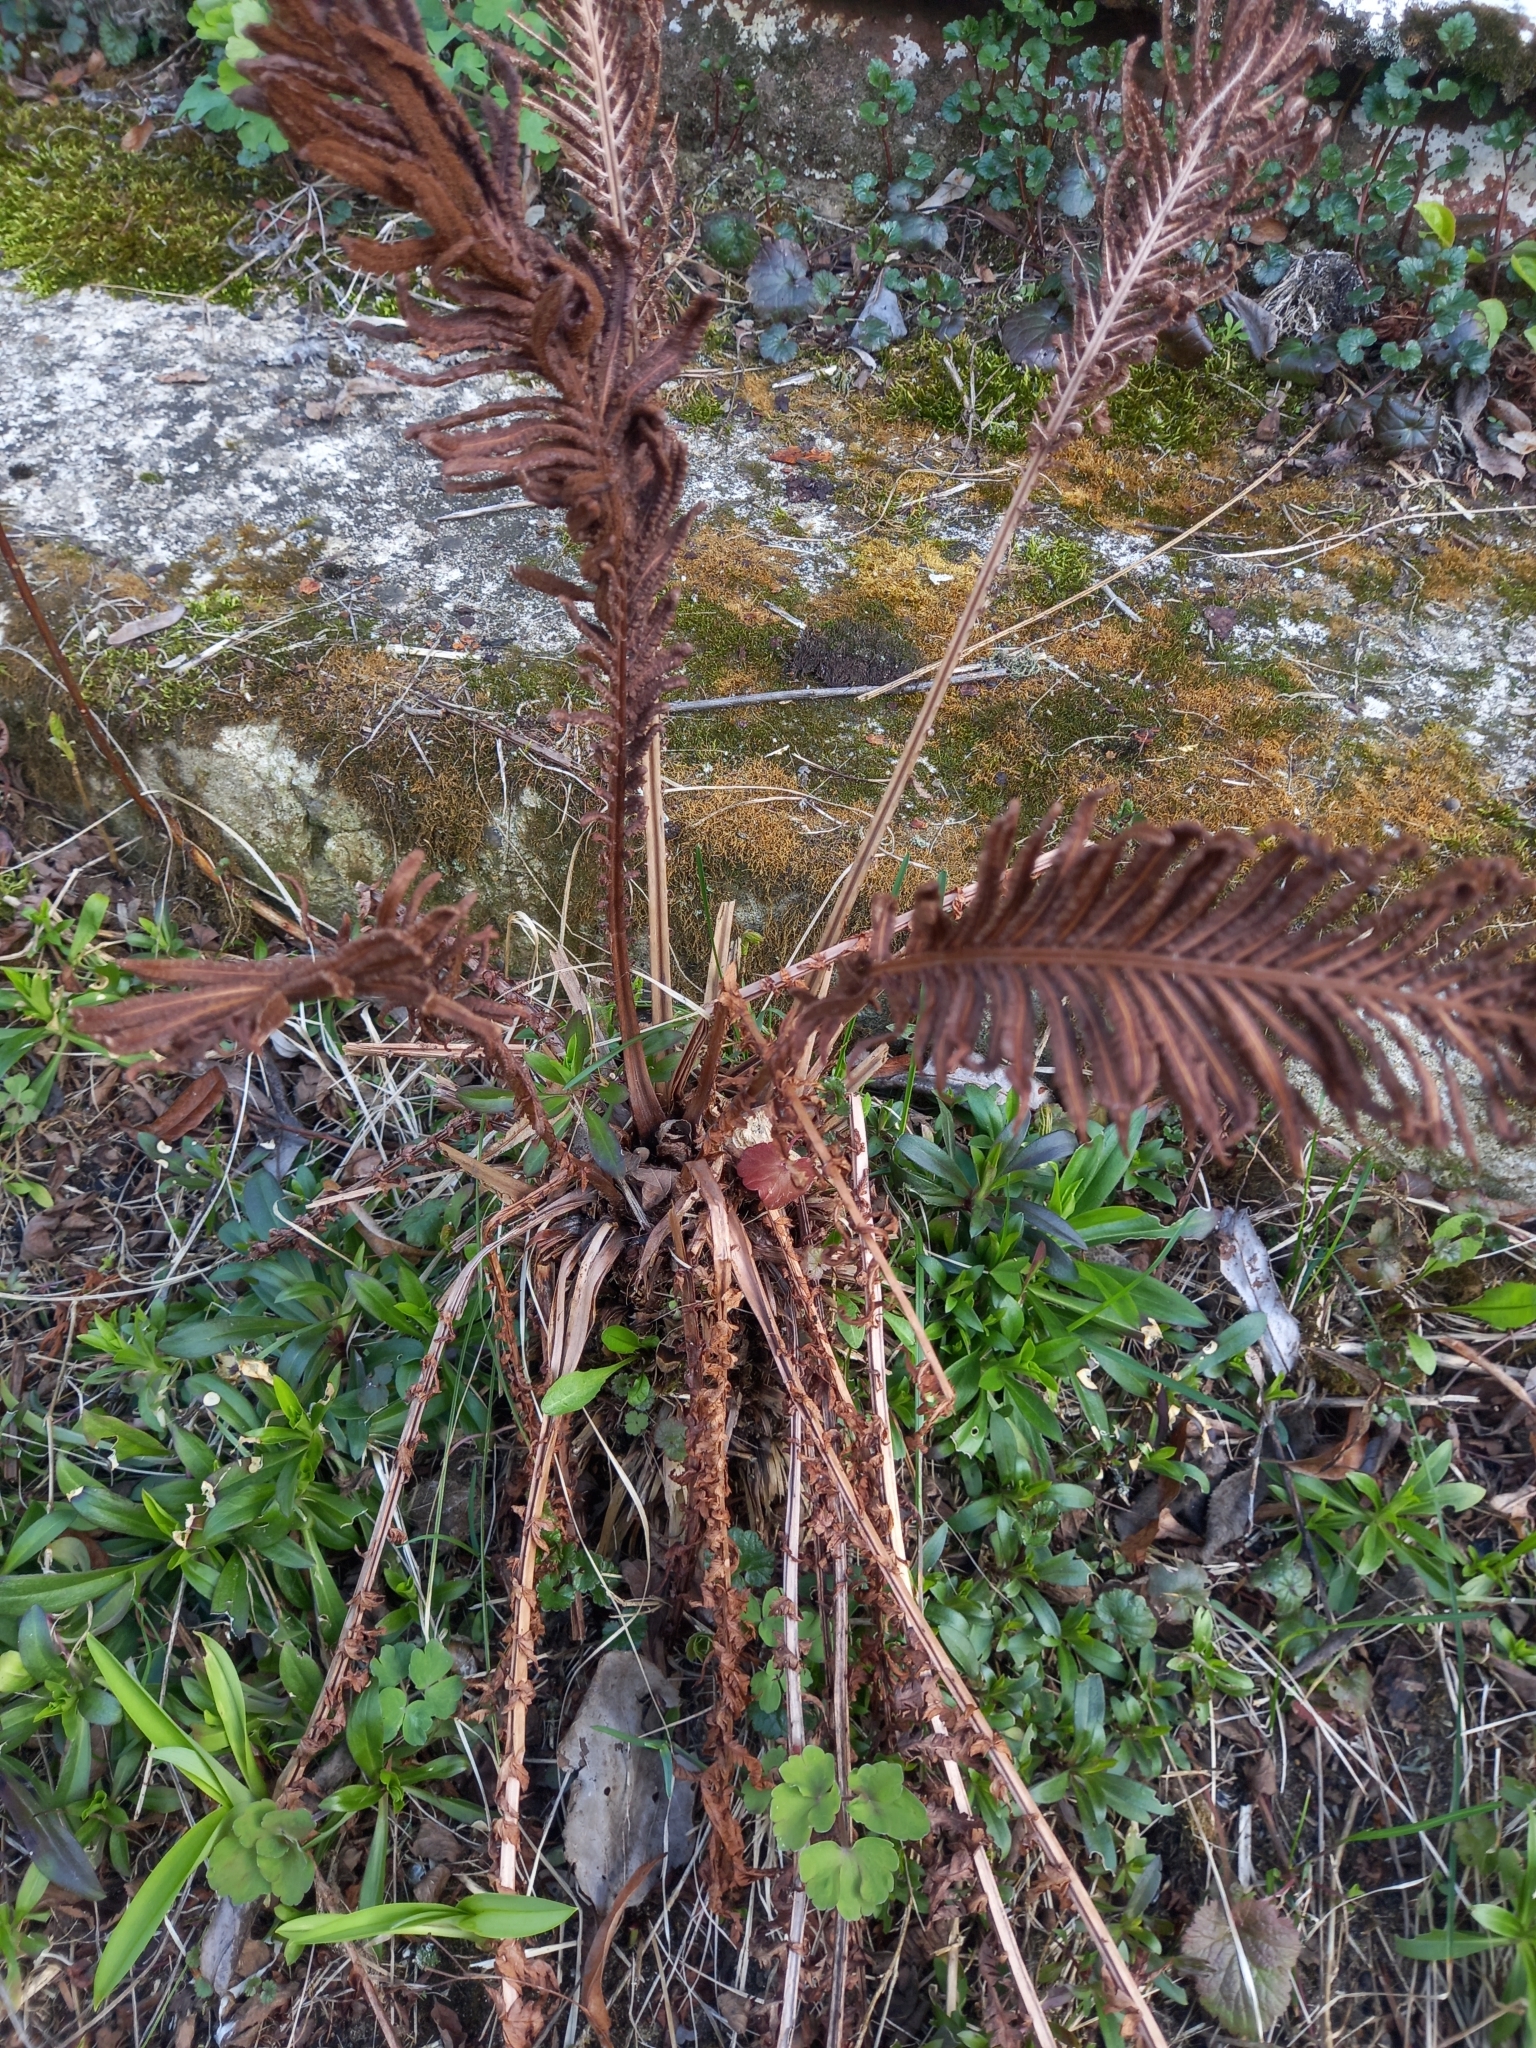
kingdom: Plantae
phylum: Tracheophyta
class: Polypodiopsida
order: Polypodiales
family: Onocleaceae
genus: Matteuccia
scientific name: Matteuccia struthiopteris
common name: Ostrich fern
